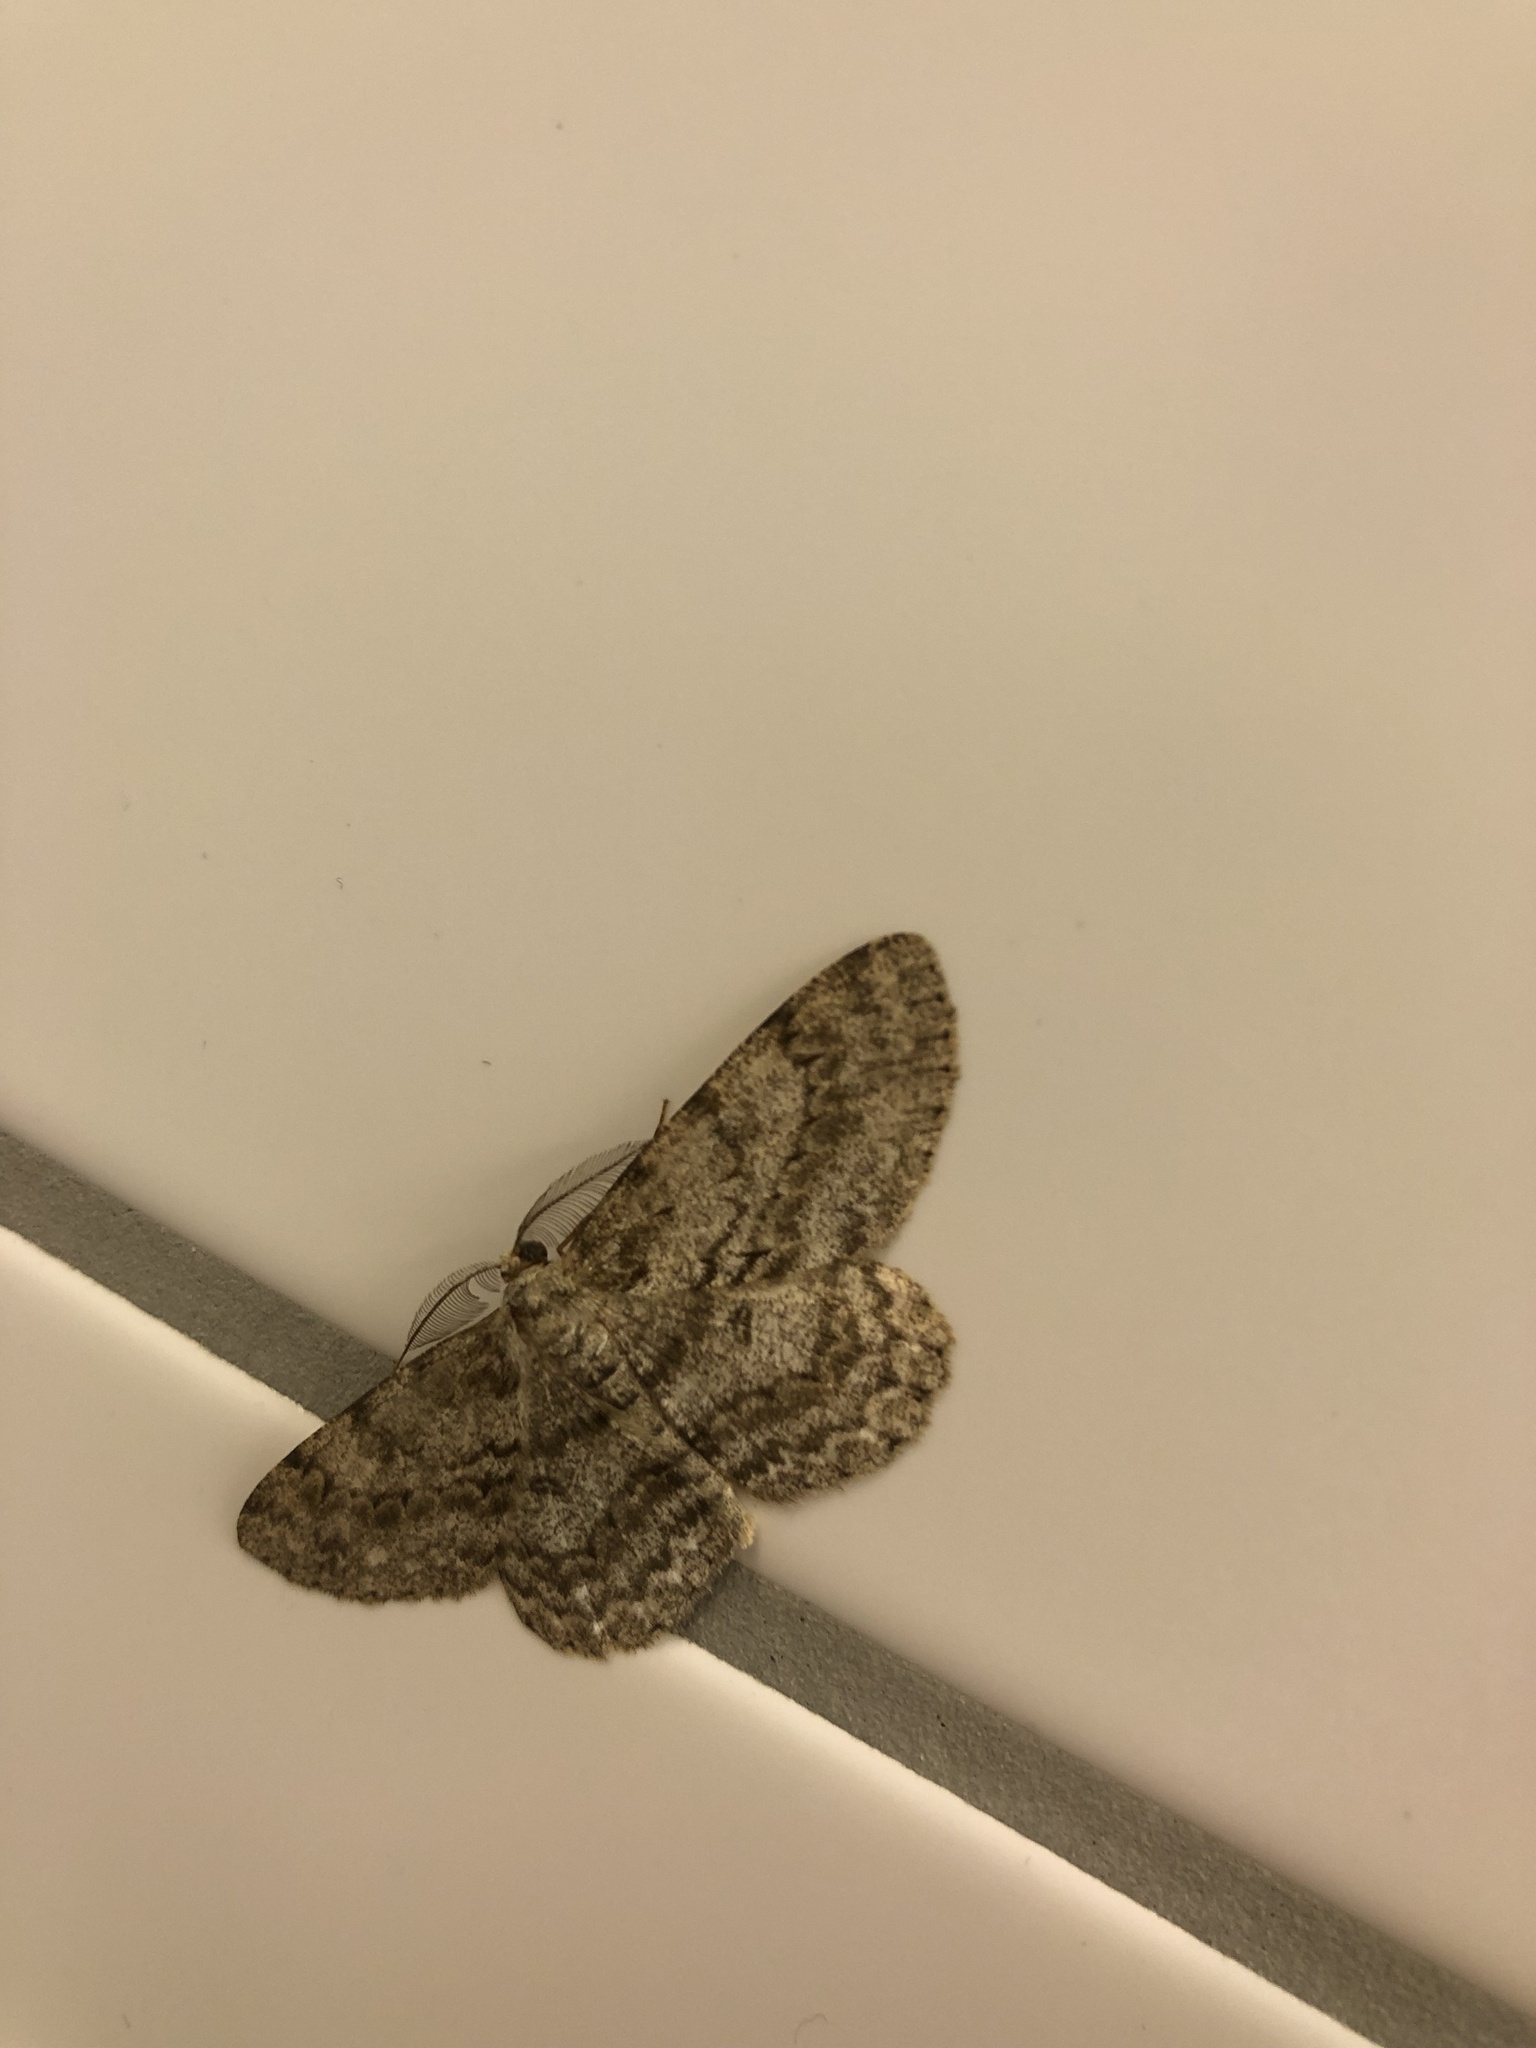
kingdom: Animalia
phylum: Arthropoda
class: Insecta
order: Lepidoptera
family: Geometridae
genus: Hypomecis
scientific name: Hypomecis punctinalis
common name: Pale oak beauty
